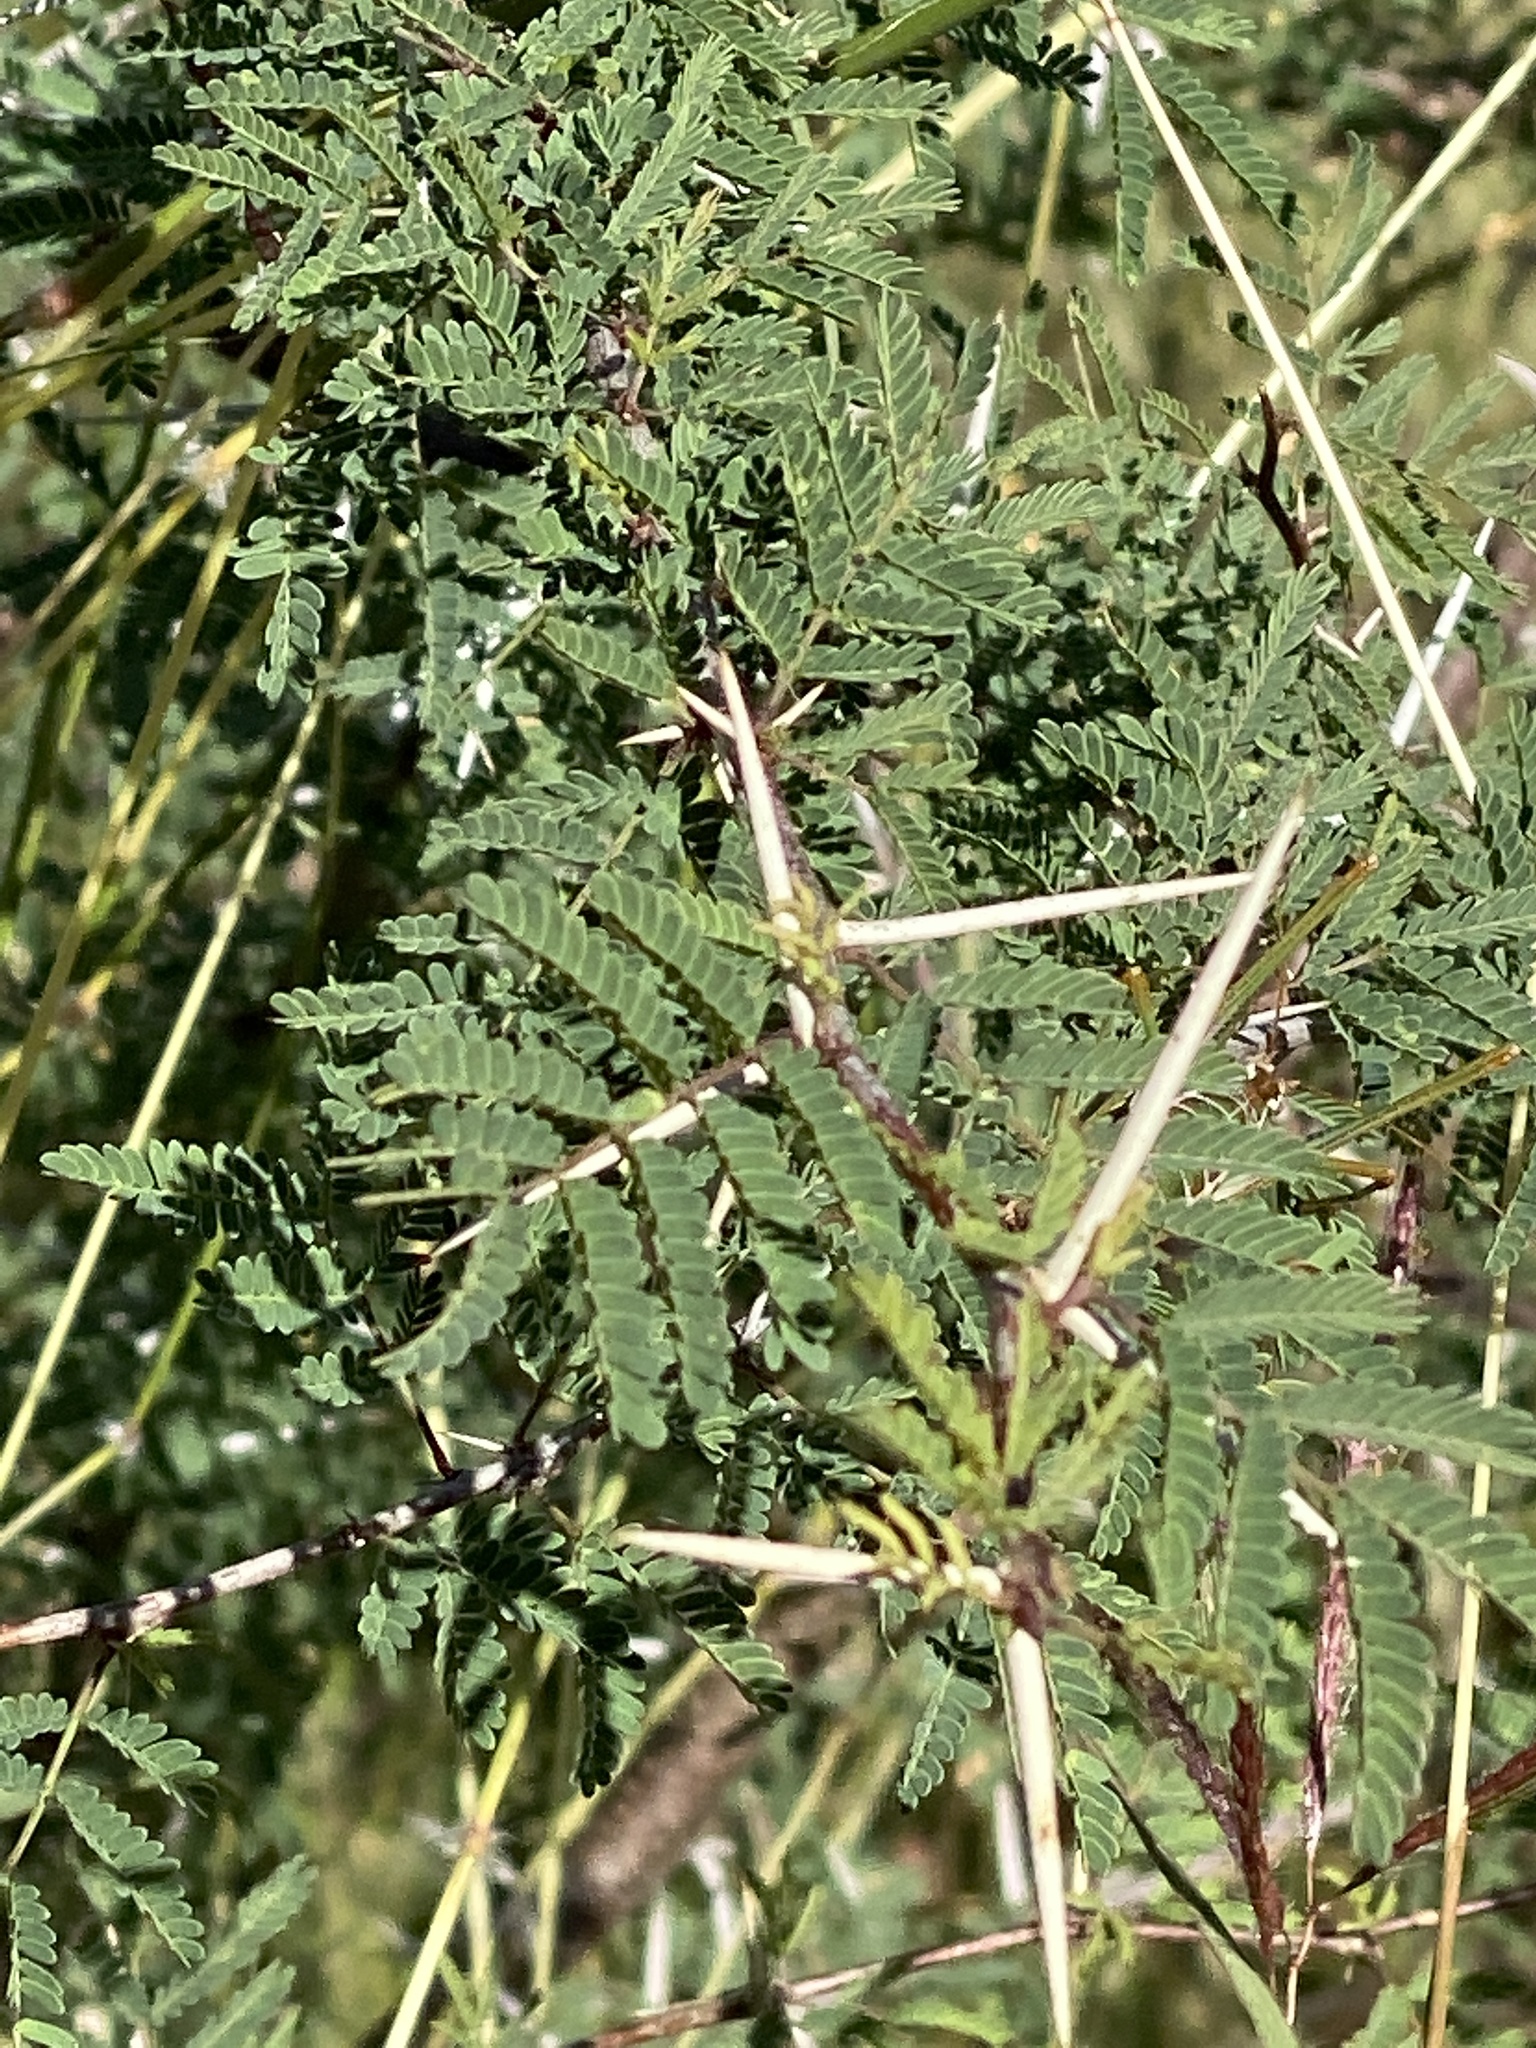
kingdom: Plantae
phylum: Tracheophyta
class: Magnoliopsida
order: Fabales
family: Fabaceae
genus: Vachellia
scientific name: Vachellia farnesiana
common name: Sweet acacia
